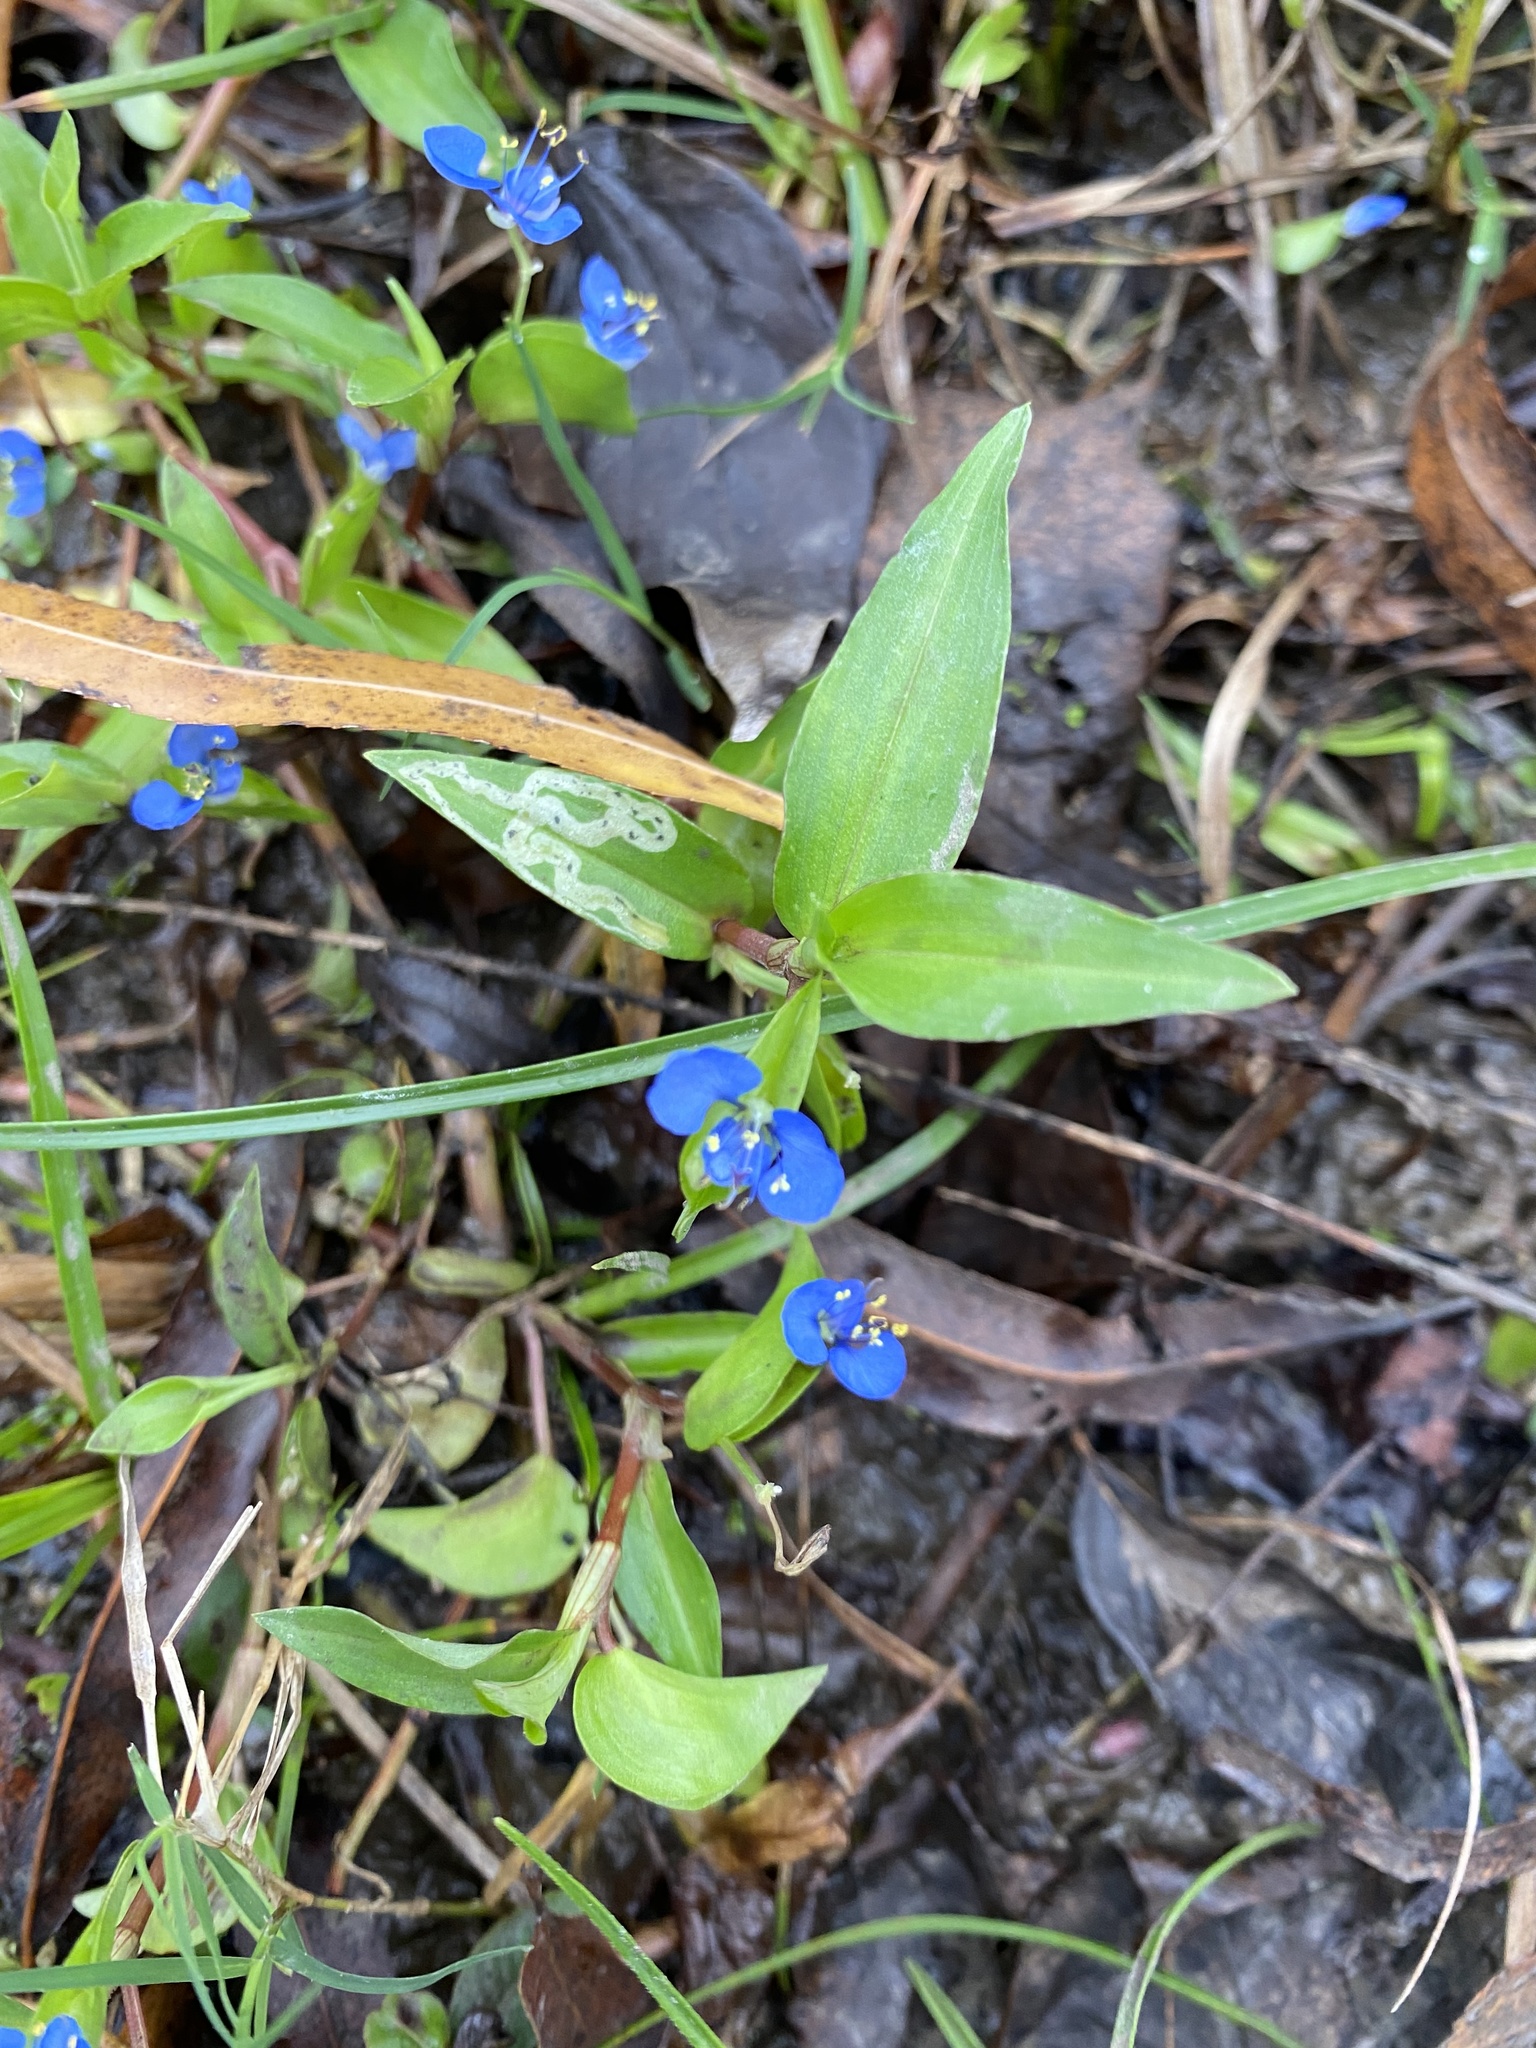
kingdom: Plantae
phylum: Tracheophyta
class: Liliopsida
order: Commelinales
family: Commelinaceae
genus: Commelina
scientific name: Commelina diffusa
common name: Climbing dayflower
